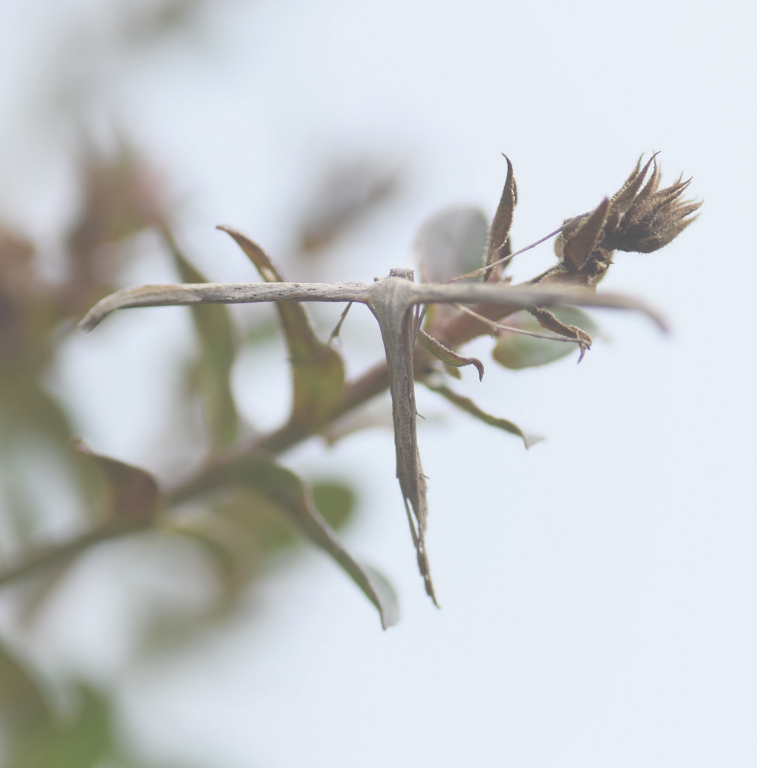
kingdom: Animalia
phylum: Arthropoda
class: Insecta
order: Lepidoptera
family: Pterophoridae
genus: Emmelina
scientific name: Emmelina monodactyla
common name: Common plume
